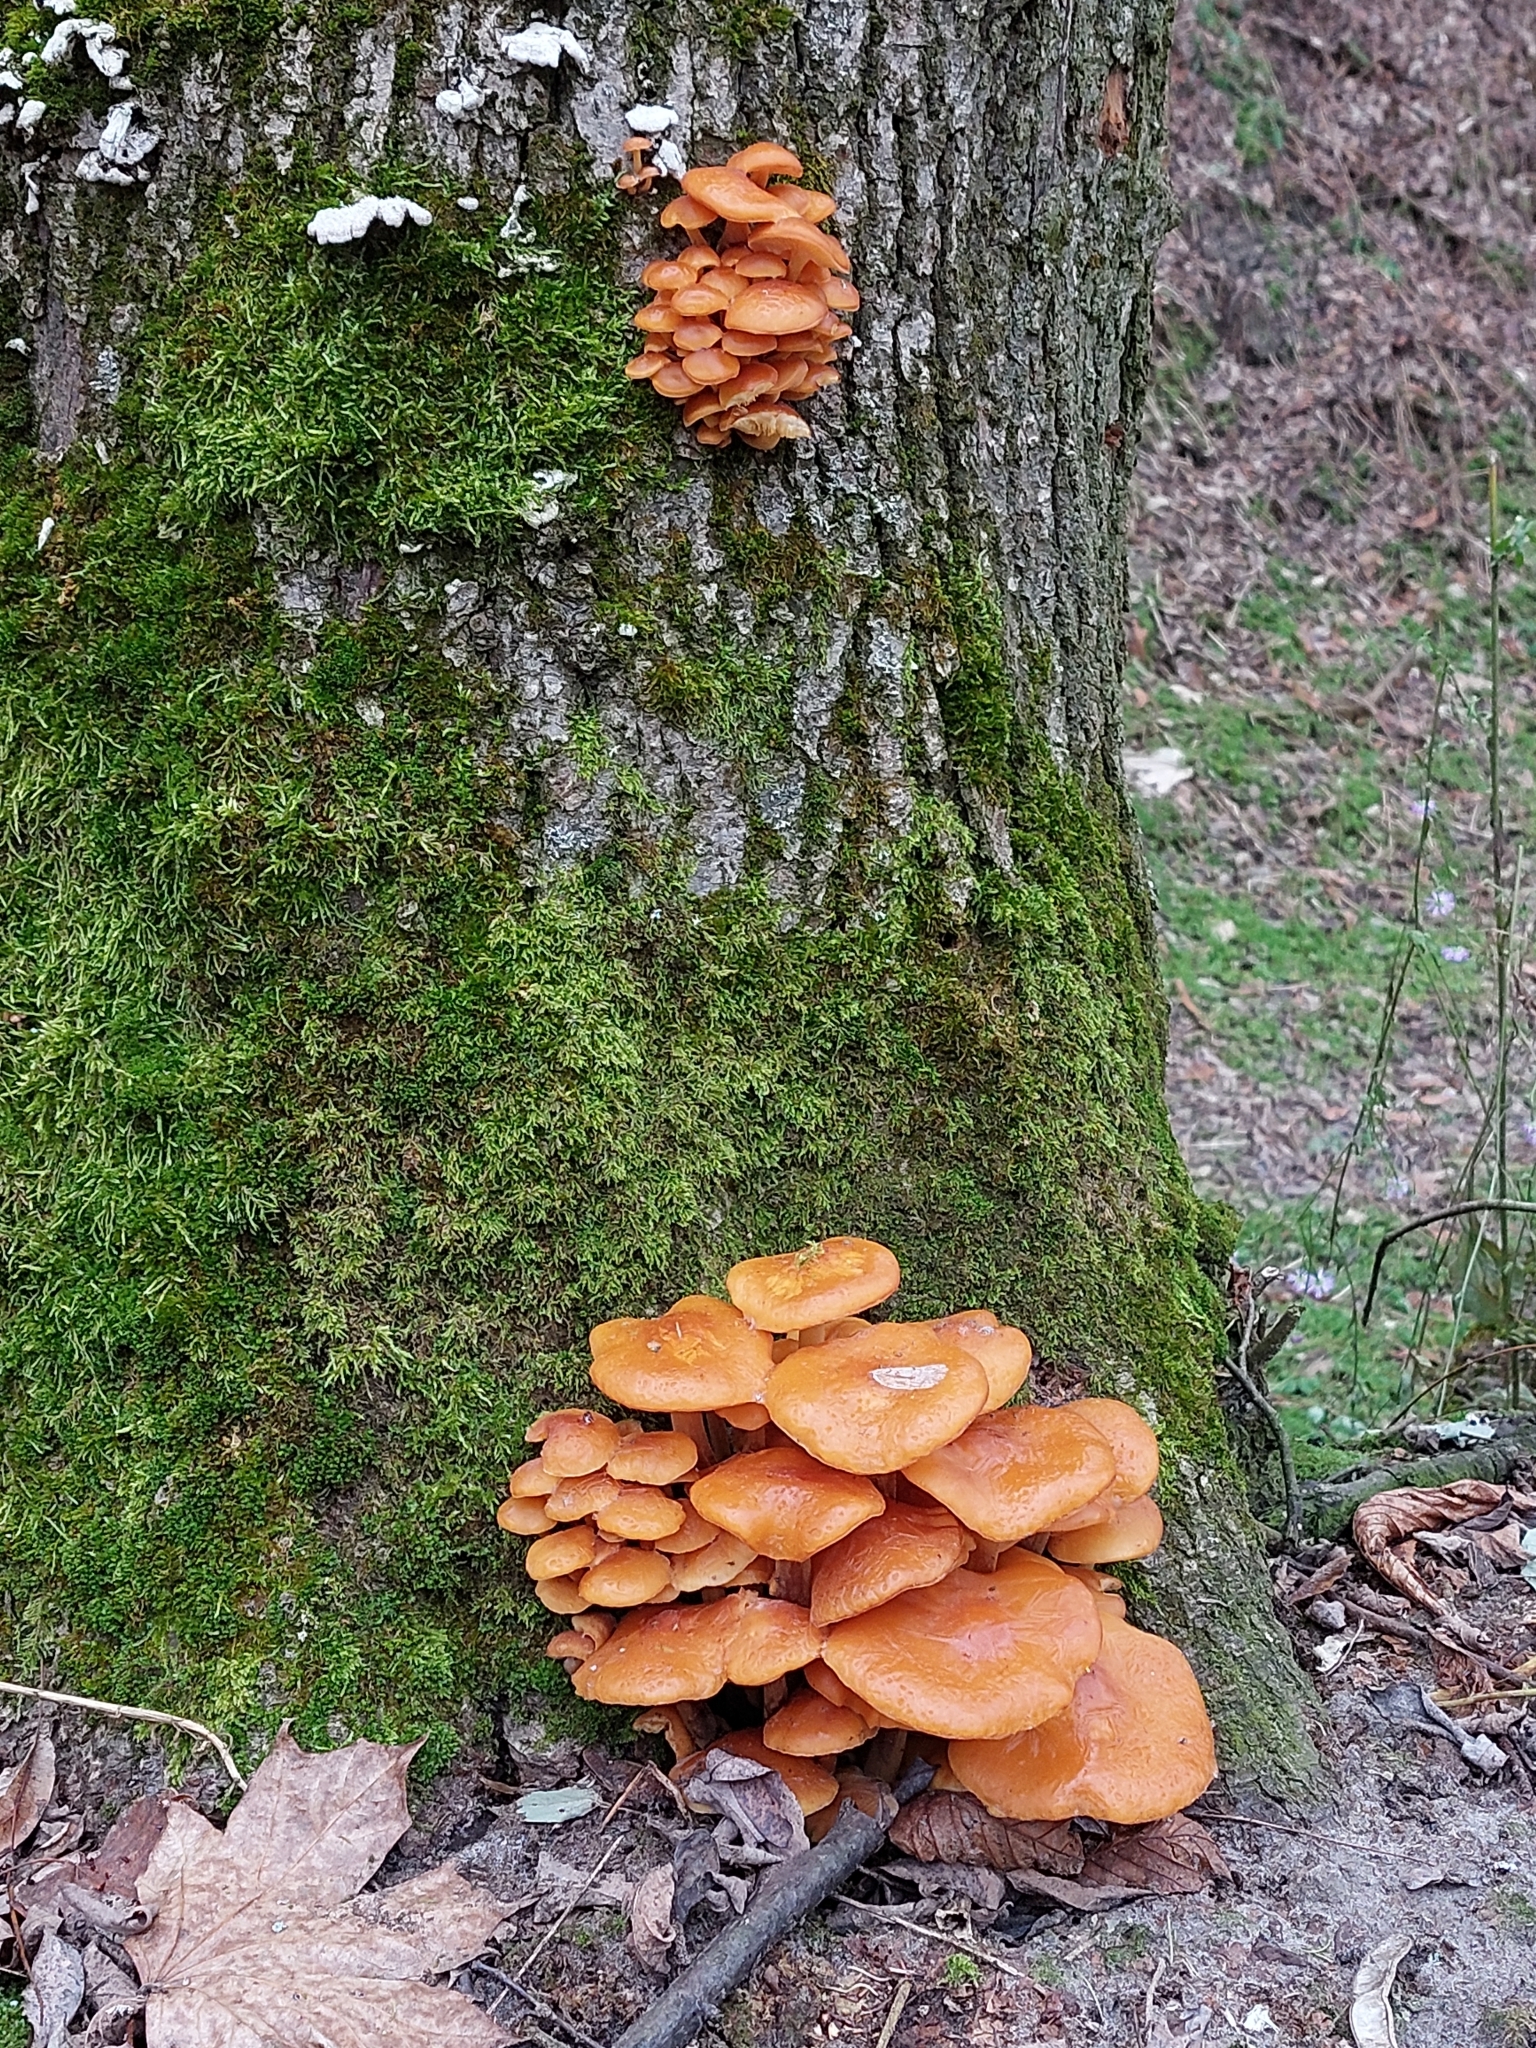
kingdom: Fungi
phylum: Basidiomycota
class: Agaricomycetes
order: Agaricales
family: Physalacriaceae
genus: Flammulina
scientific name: Flammulina
